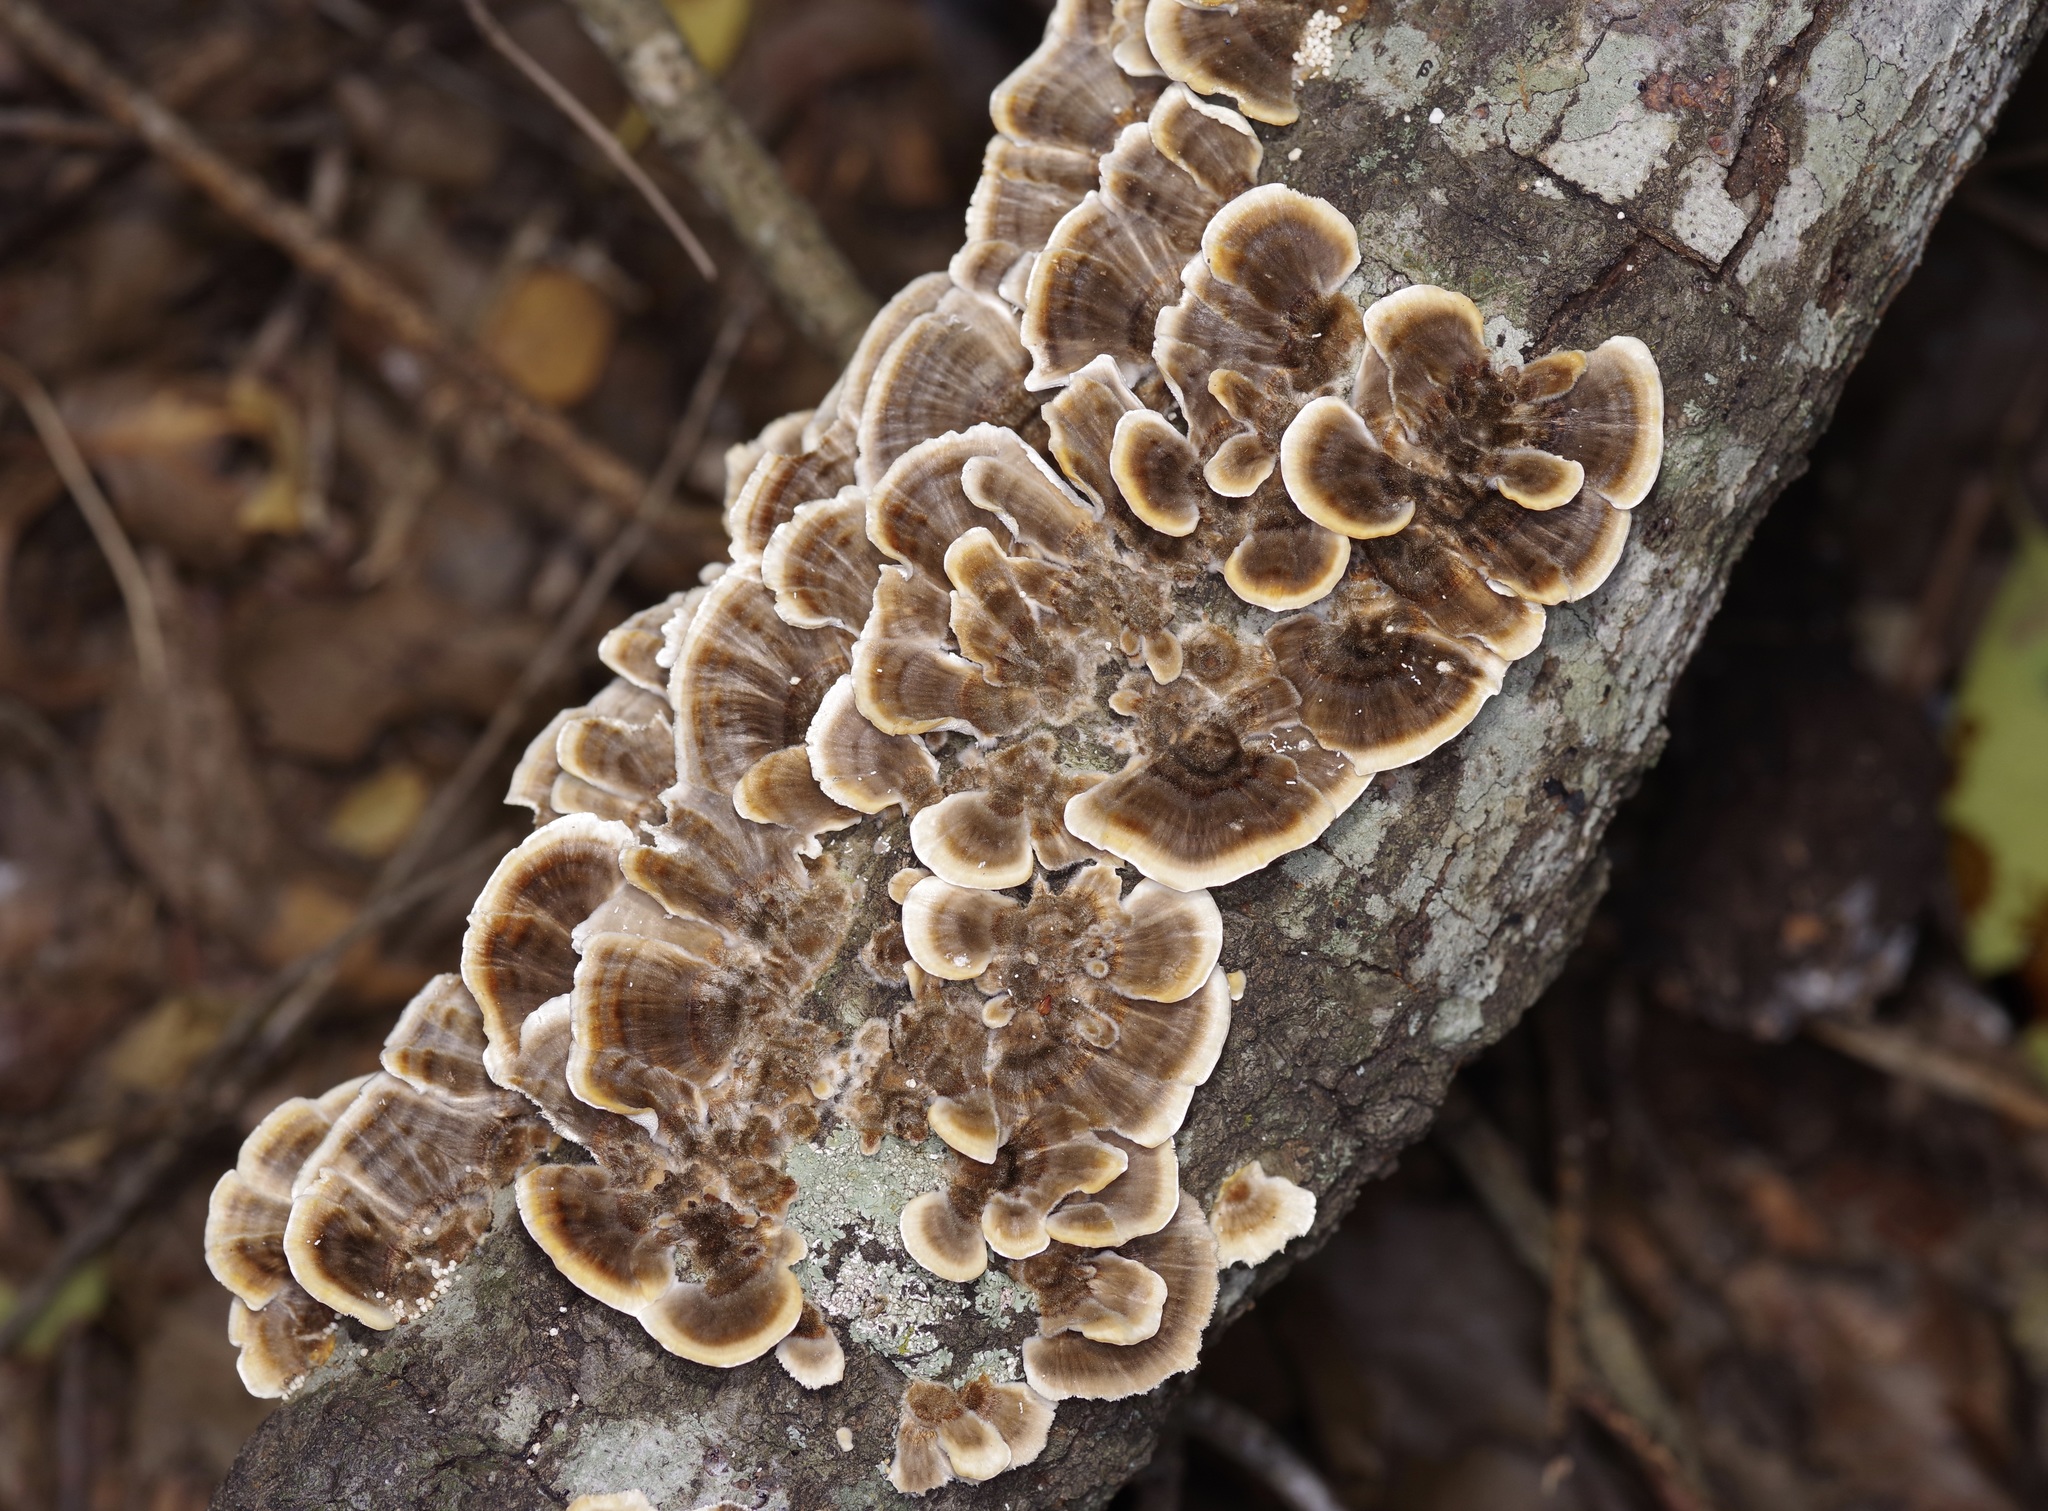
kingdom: Fungi
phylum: Basidiomycota
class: Agaricomycetes
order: Polyporales
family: Polyporaceae
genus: Trametes
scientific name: Trametes versicolor
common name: Turkeytail
